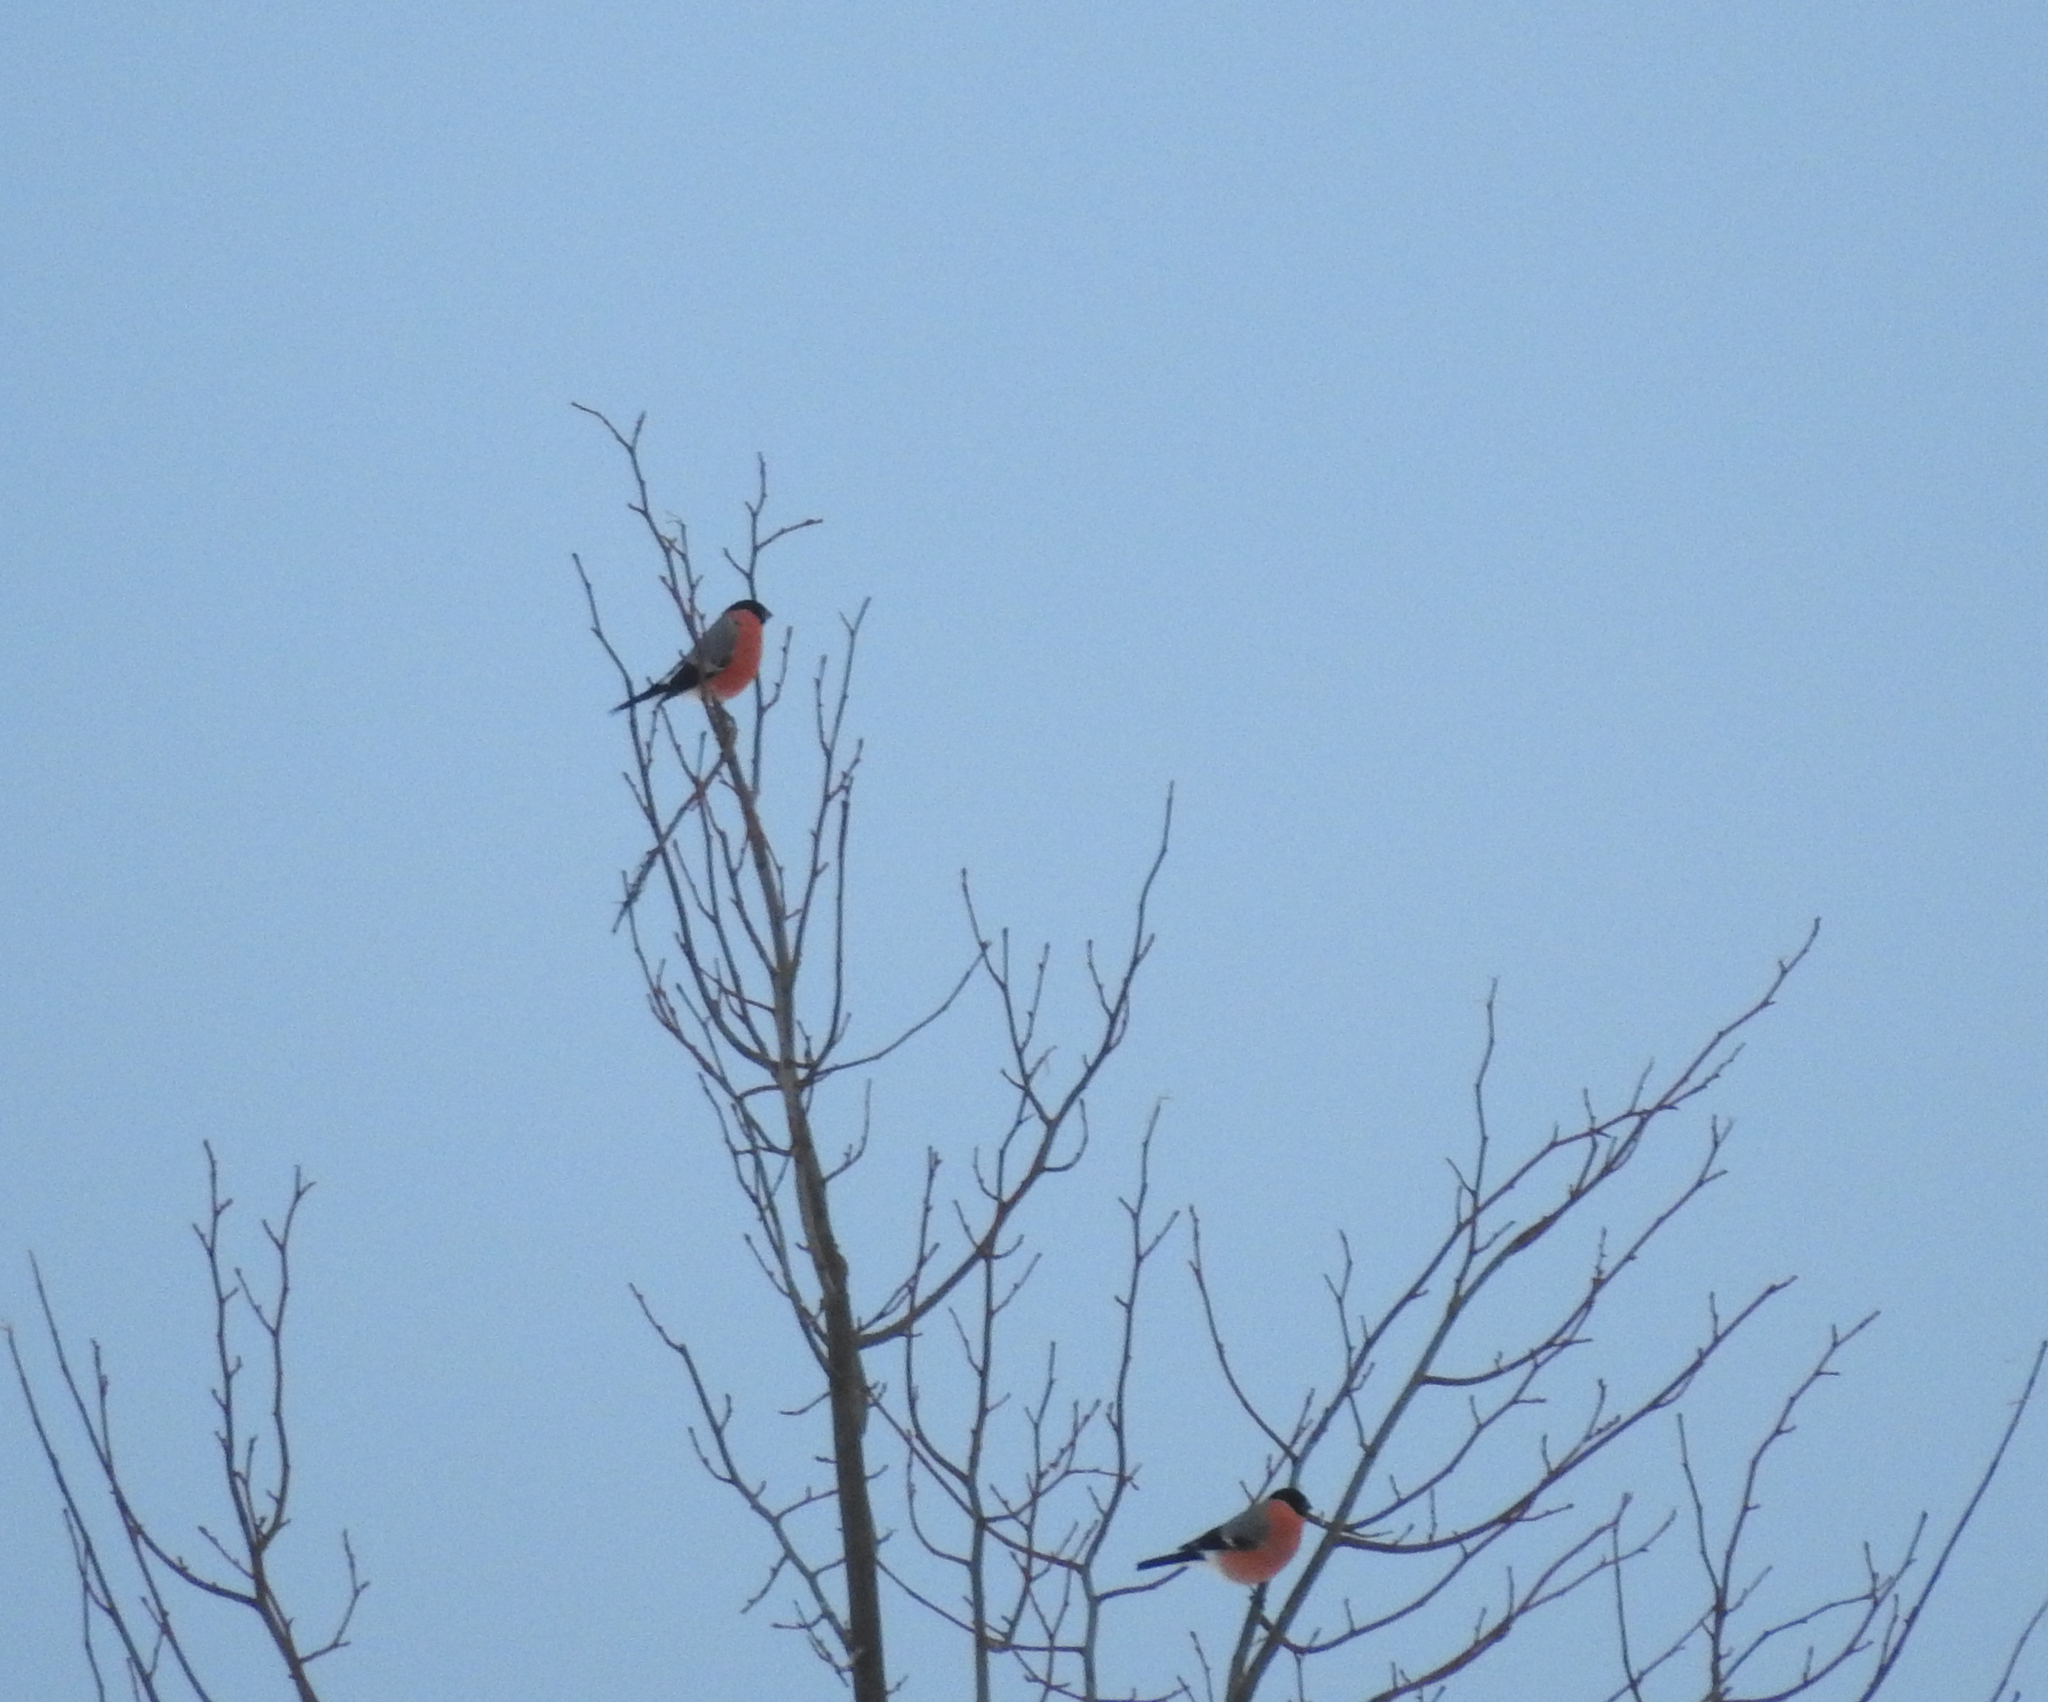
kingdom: Animalia
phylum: Chordata
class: Aves
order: Passeriformes
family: Fringillidae
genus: Pyrrhula
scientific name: Pyrrhula pyrrhula
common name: Eurasian bullfinch
